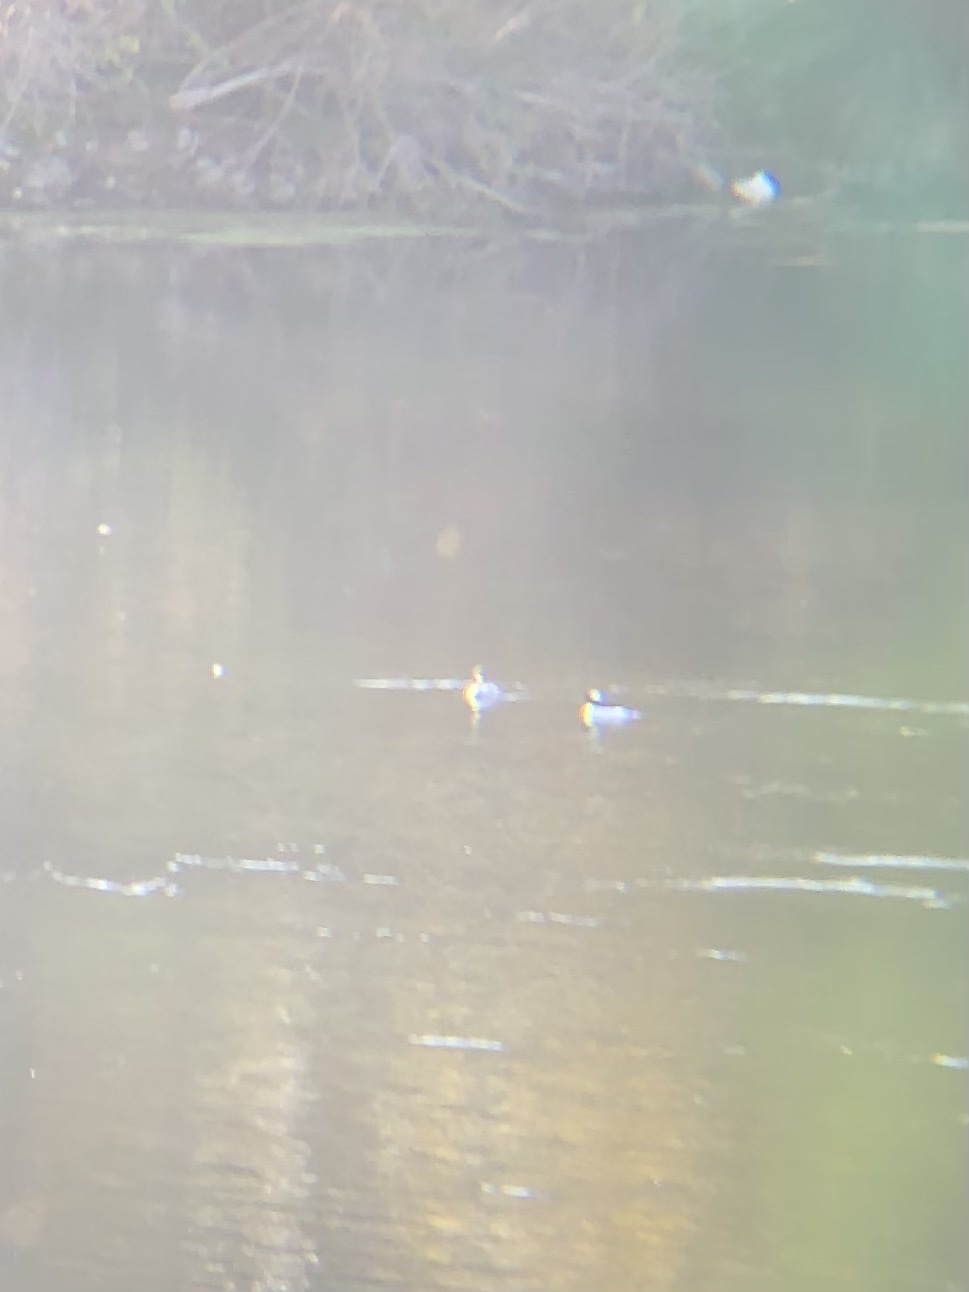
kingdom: Animalia
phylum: Chordata
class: Aves
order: Anseriformes
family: Anatidae
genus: Bucephala
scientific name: Bucephala albeola
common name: Bufflehead
